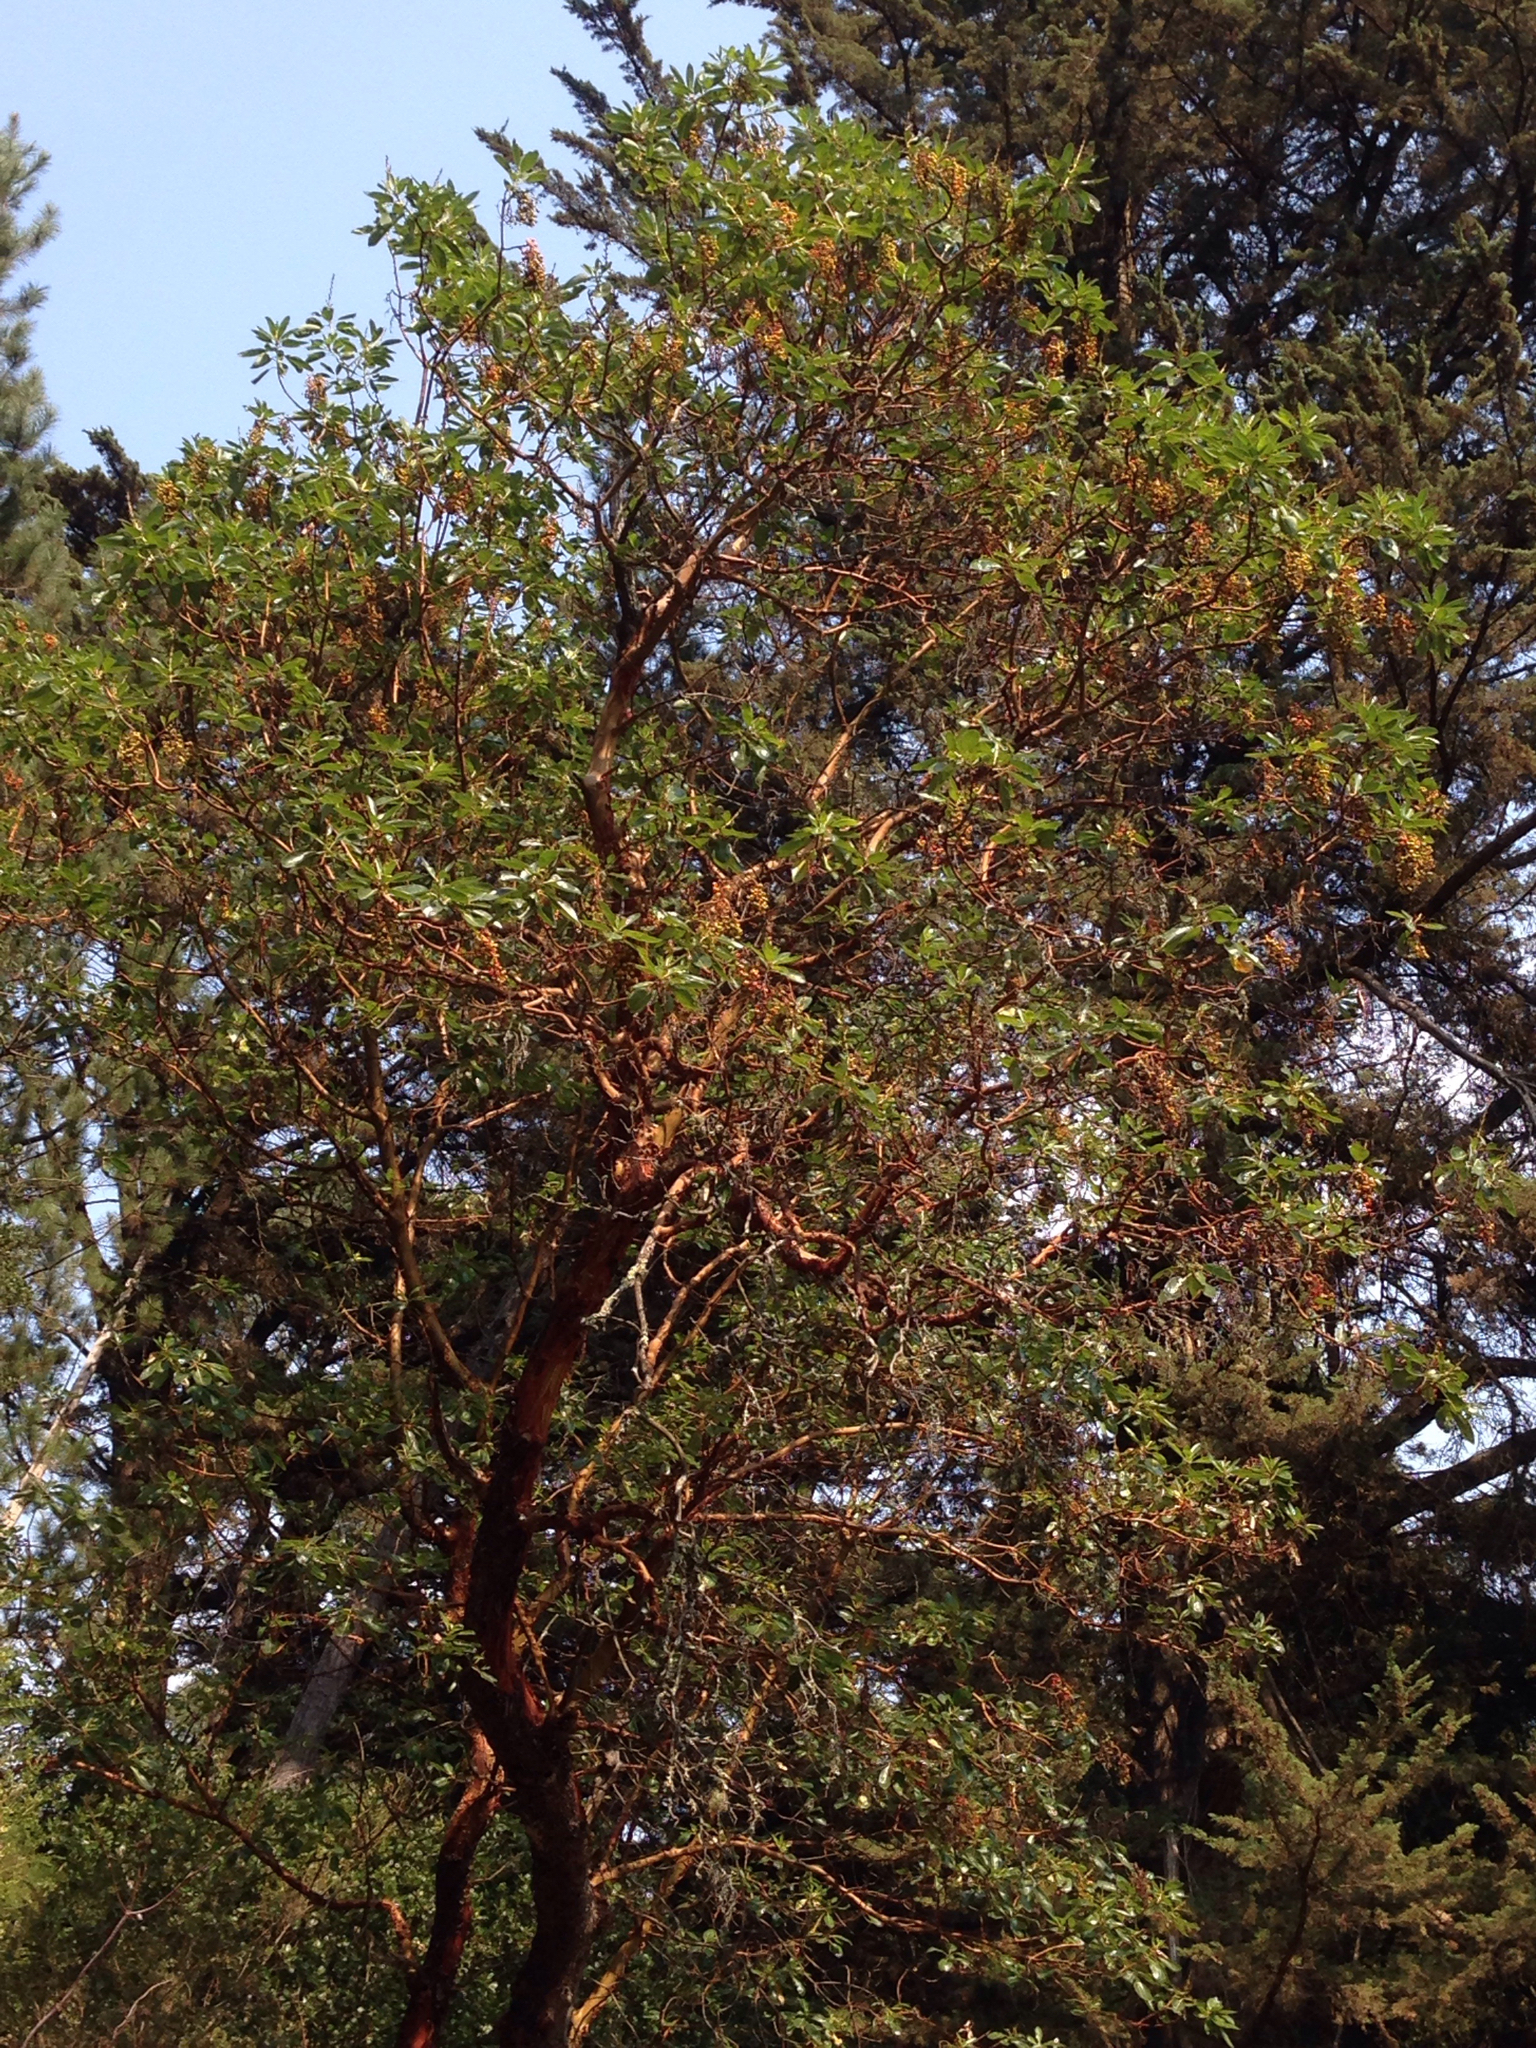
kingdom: Plantae
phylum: Tracheophyta
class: Magnoliopsida
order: Ericales
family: Ericaceae
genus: Arbutus
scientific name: Arbutus menziesii
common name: Pacific madrone
